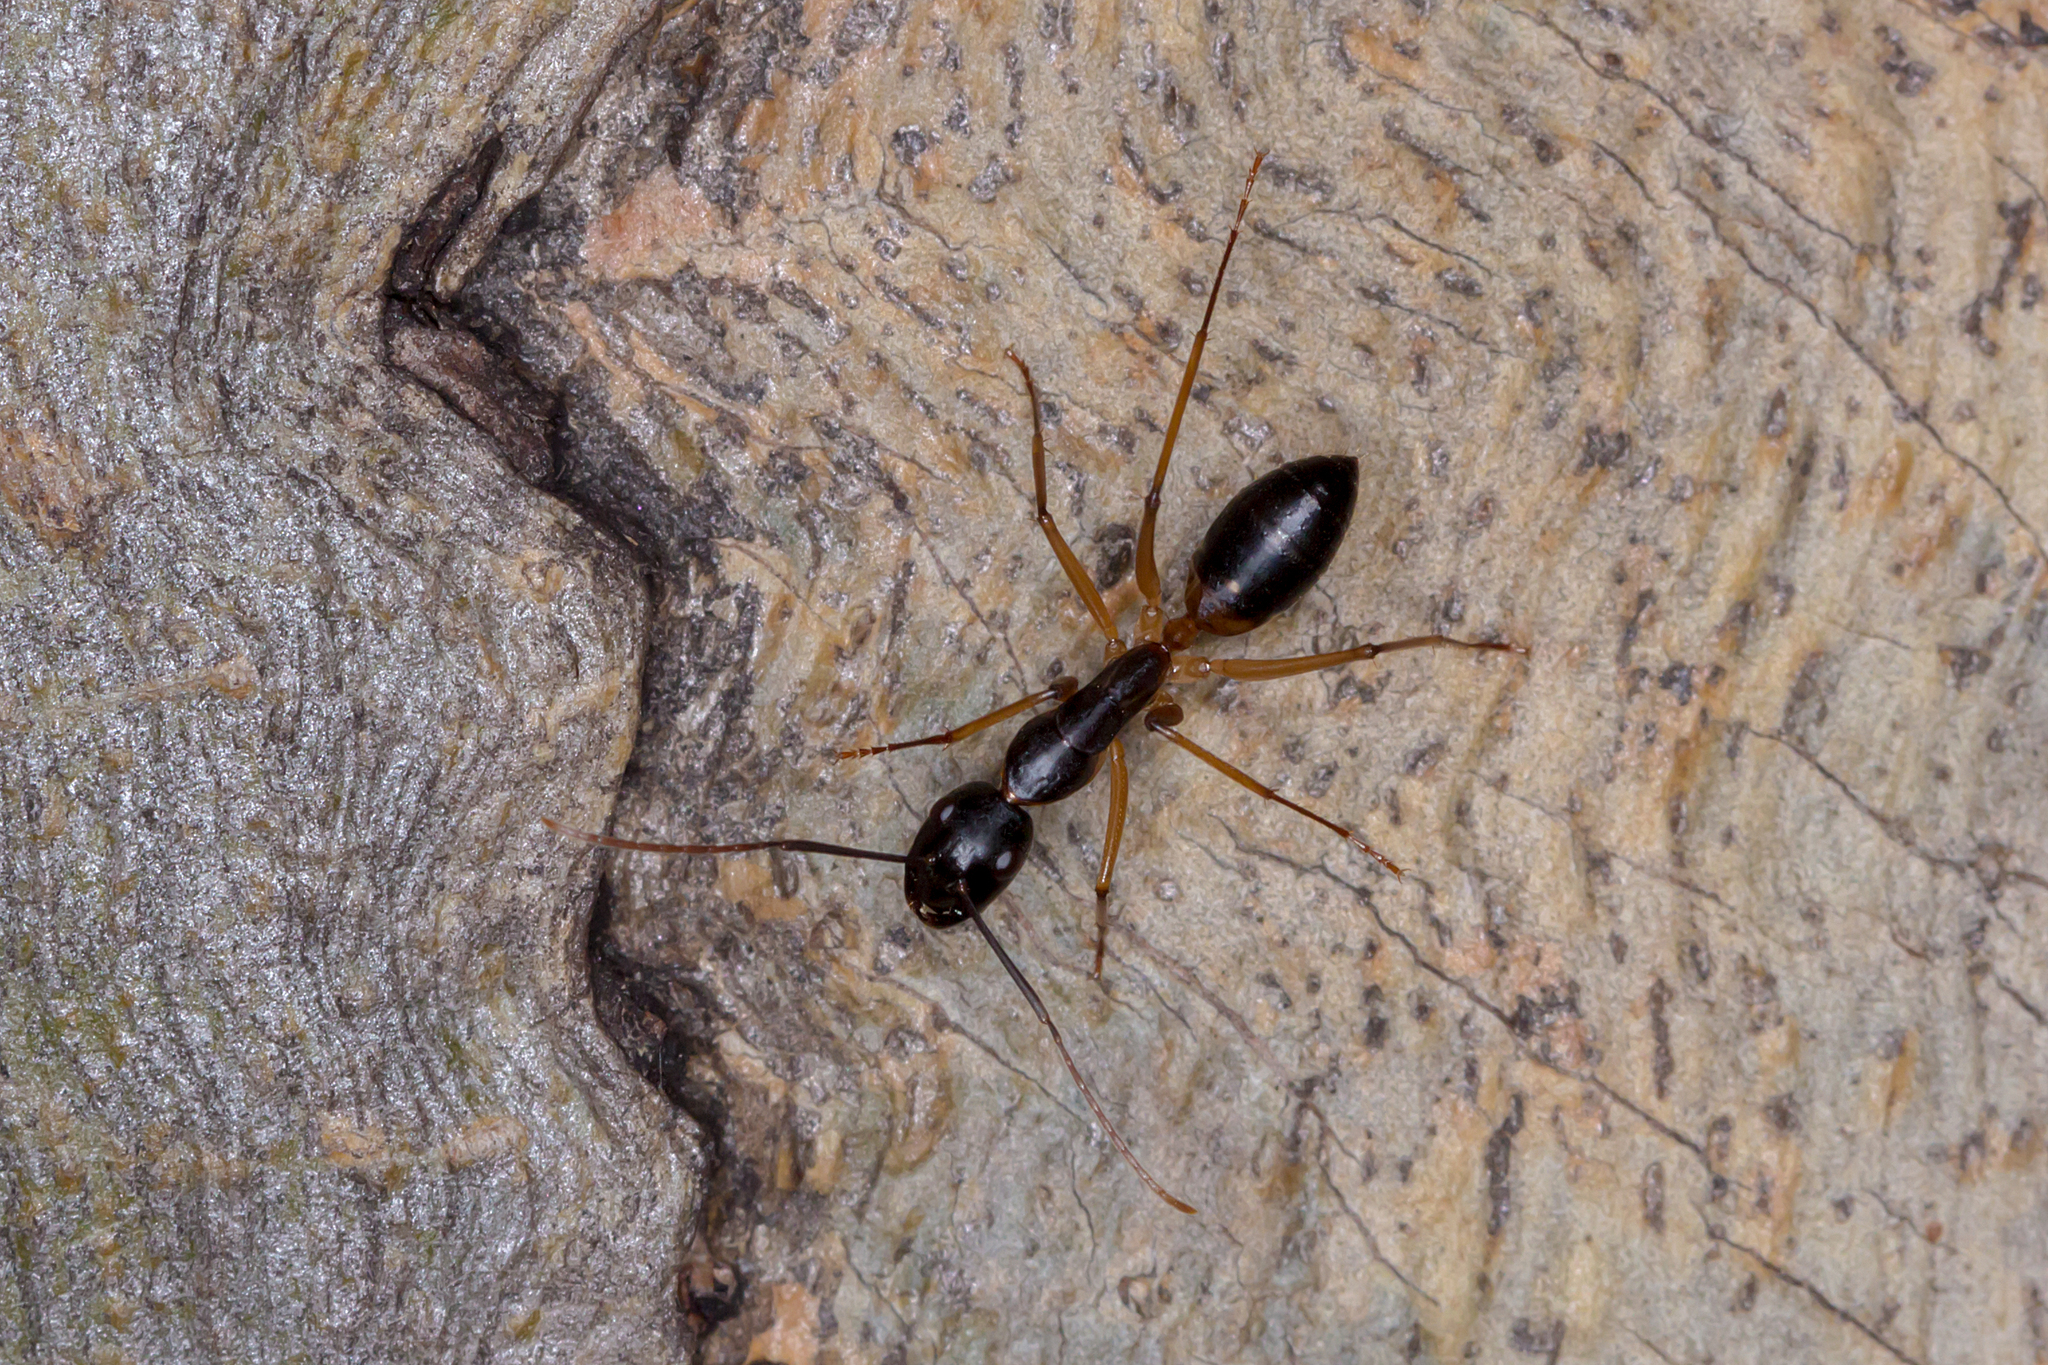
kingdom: Animalia
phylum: Arthropoda
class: Insecta
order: Hymenoptera
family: Formicidae
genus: Camponotus
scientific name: Camponotus consobrinus
